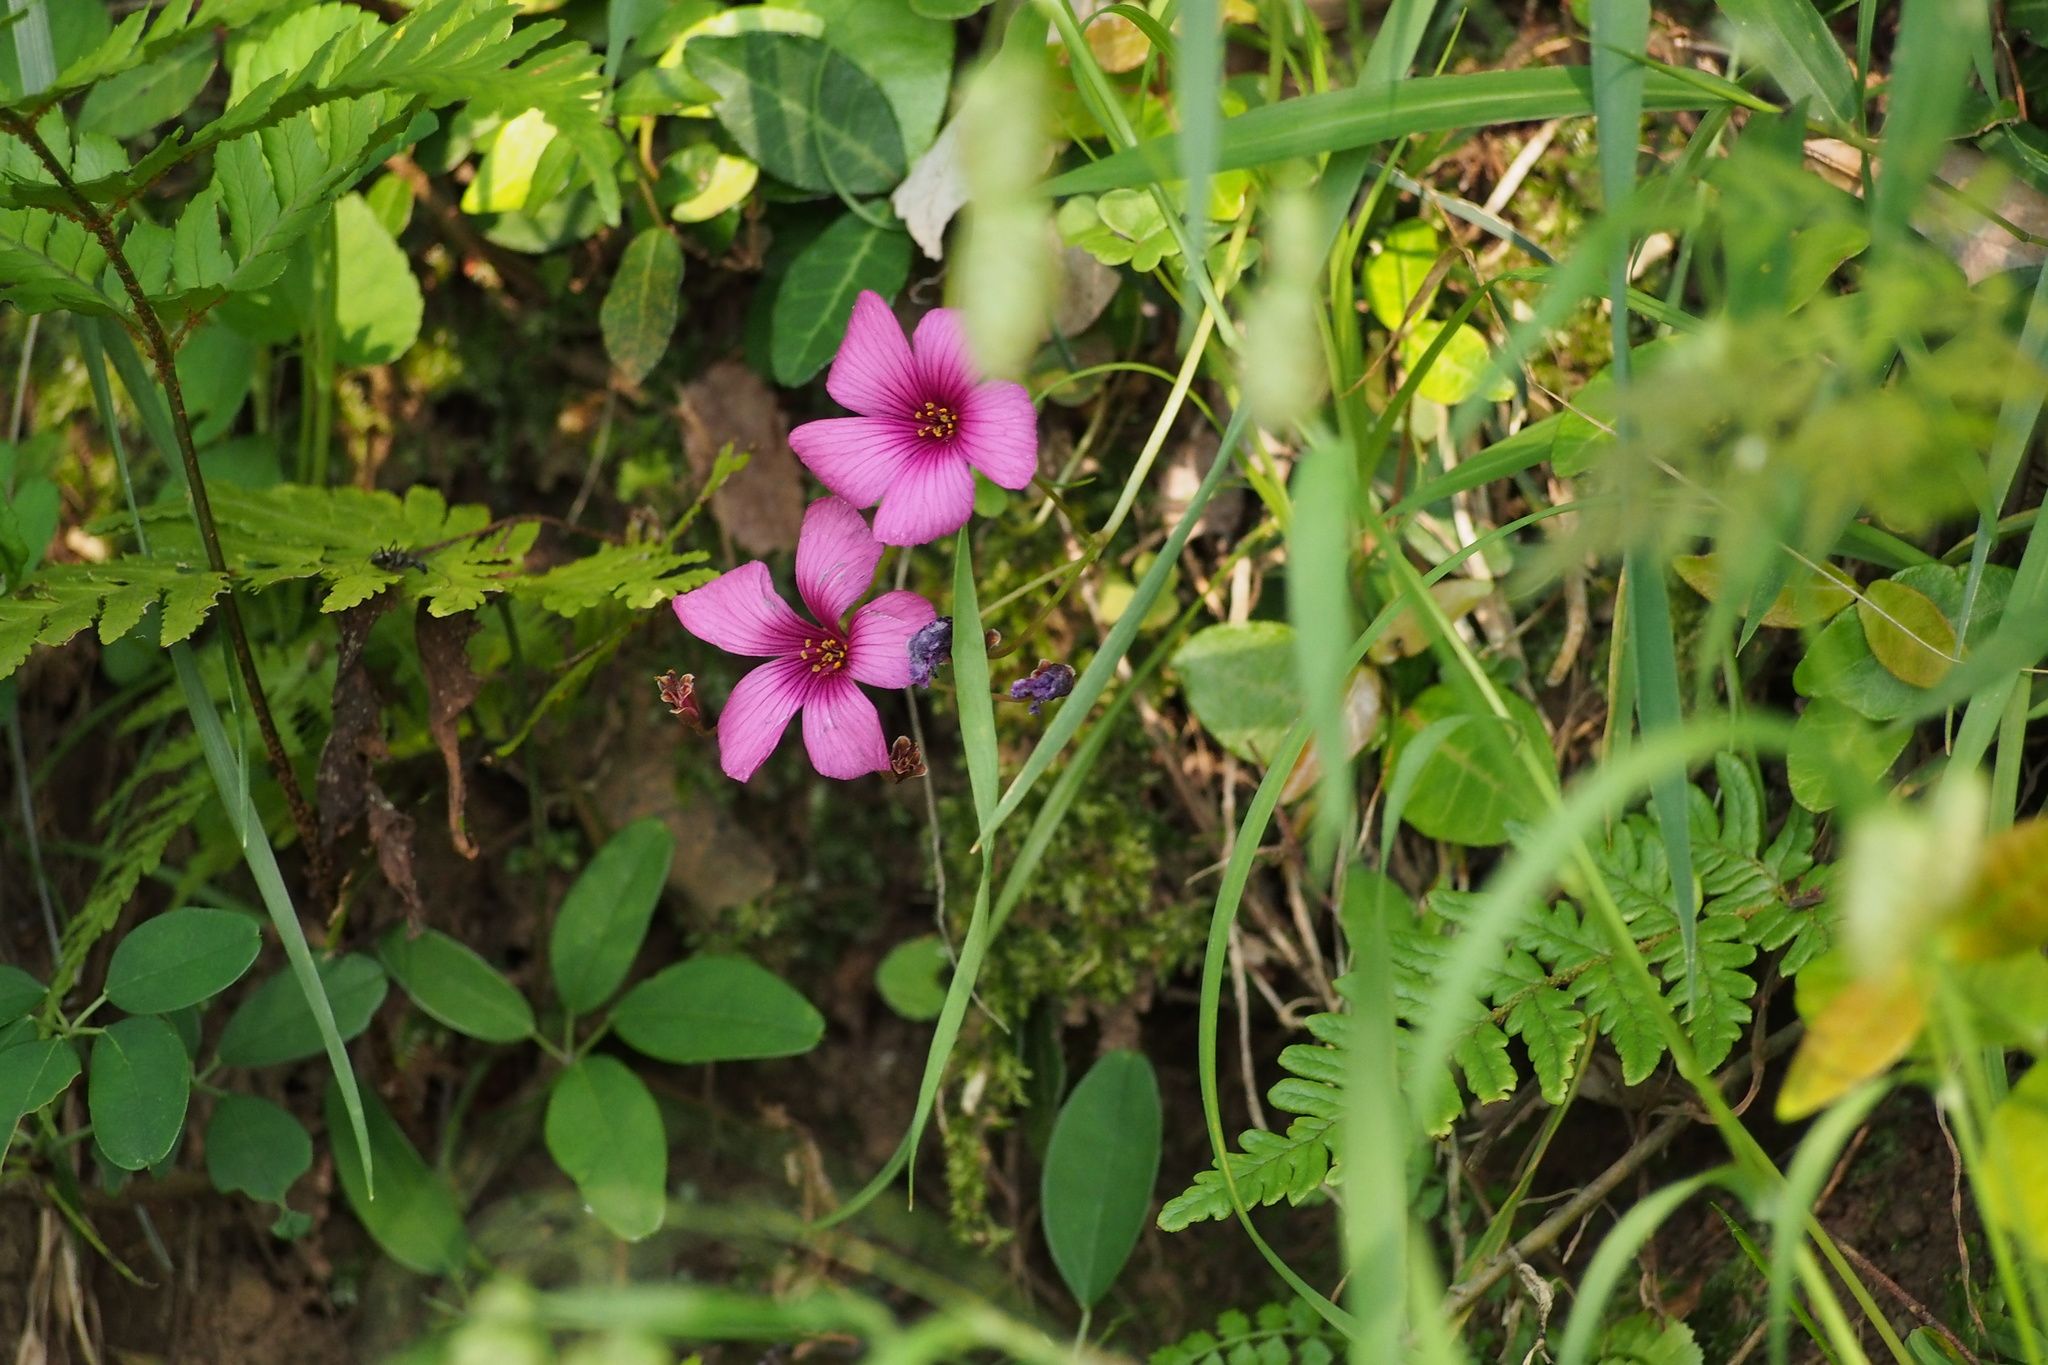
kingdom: Plantae
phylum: Tracheophyta
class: Magnoliopsida
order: Oxalidales
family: Oxalidaceae
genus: Oxalis
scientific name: Oxalis articulata
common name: Pink-sorrel
